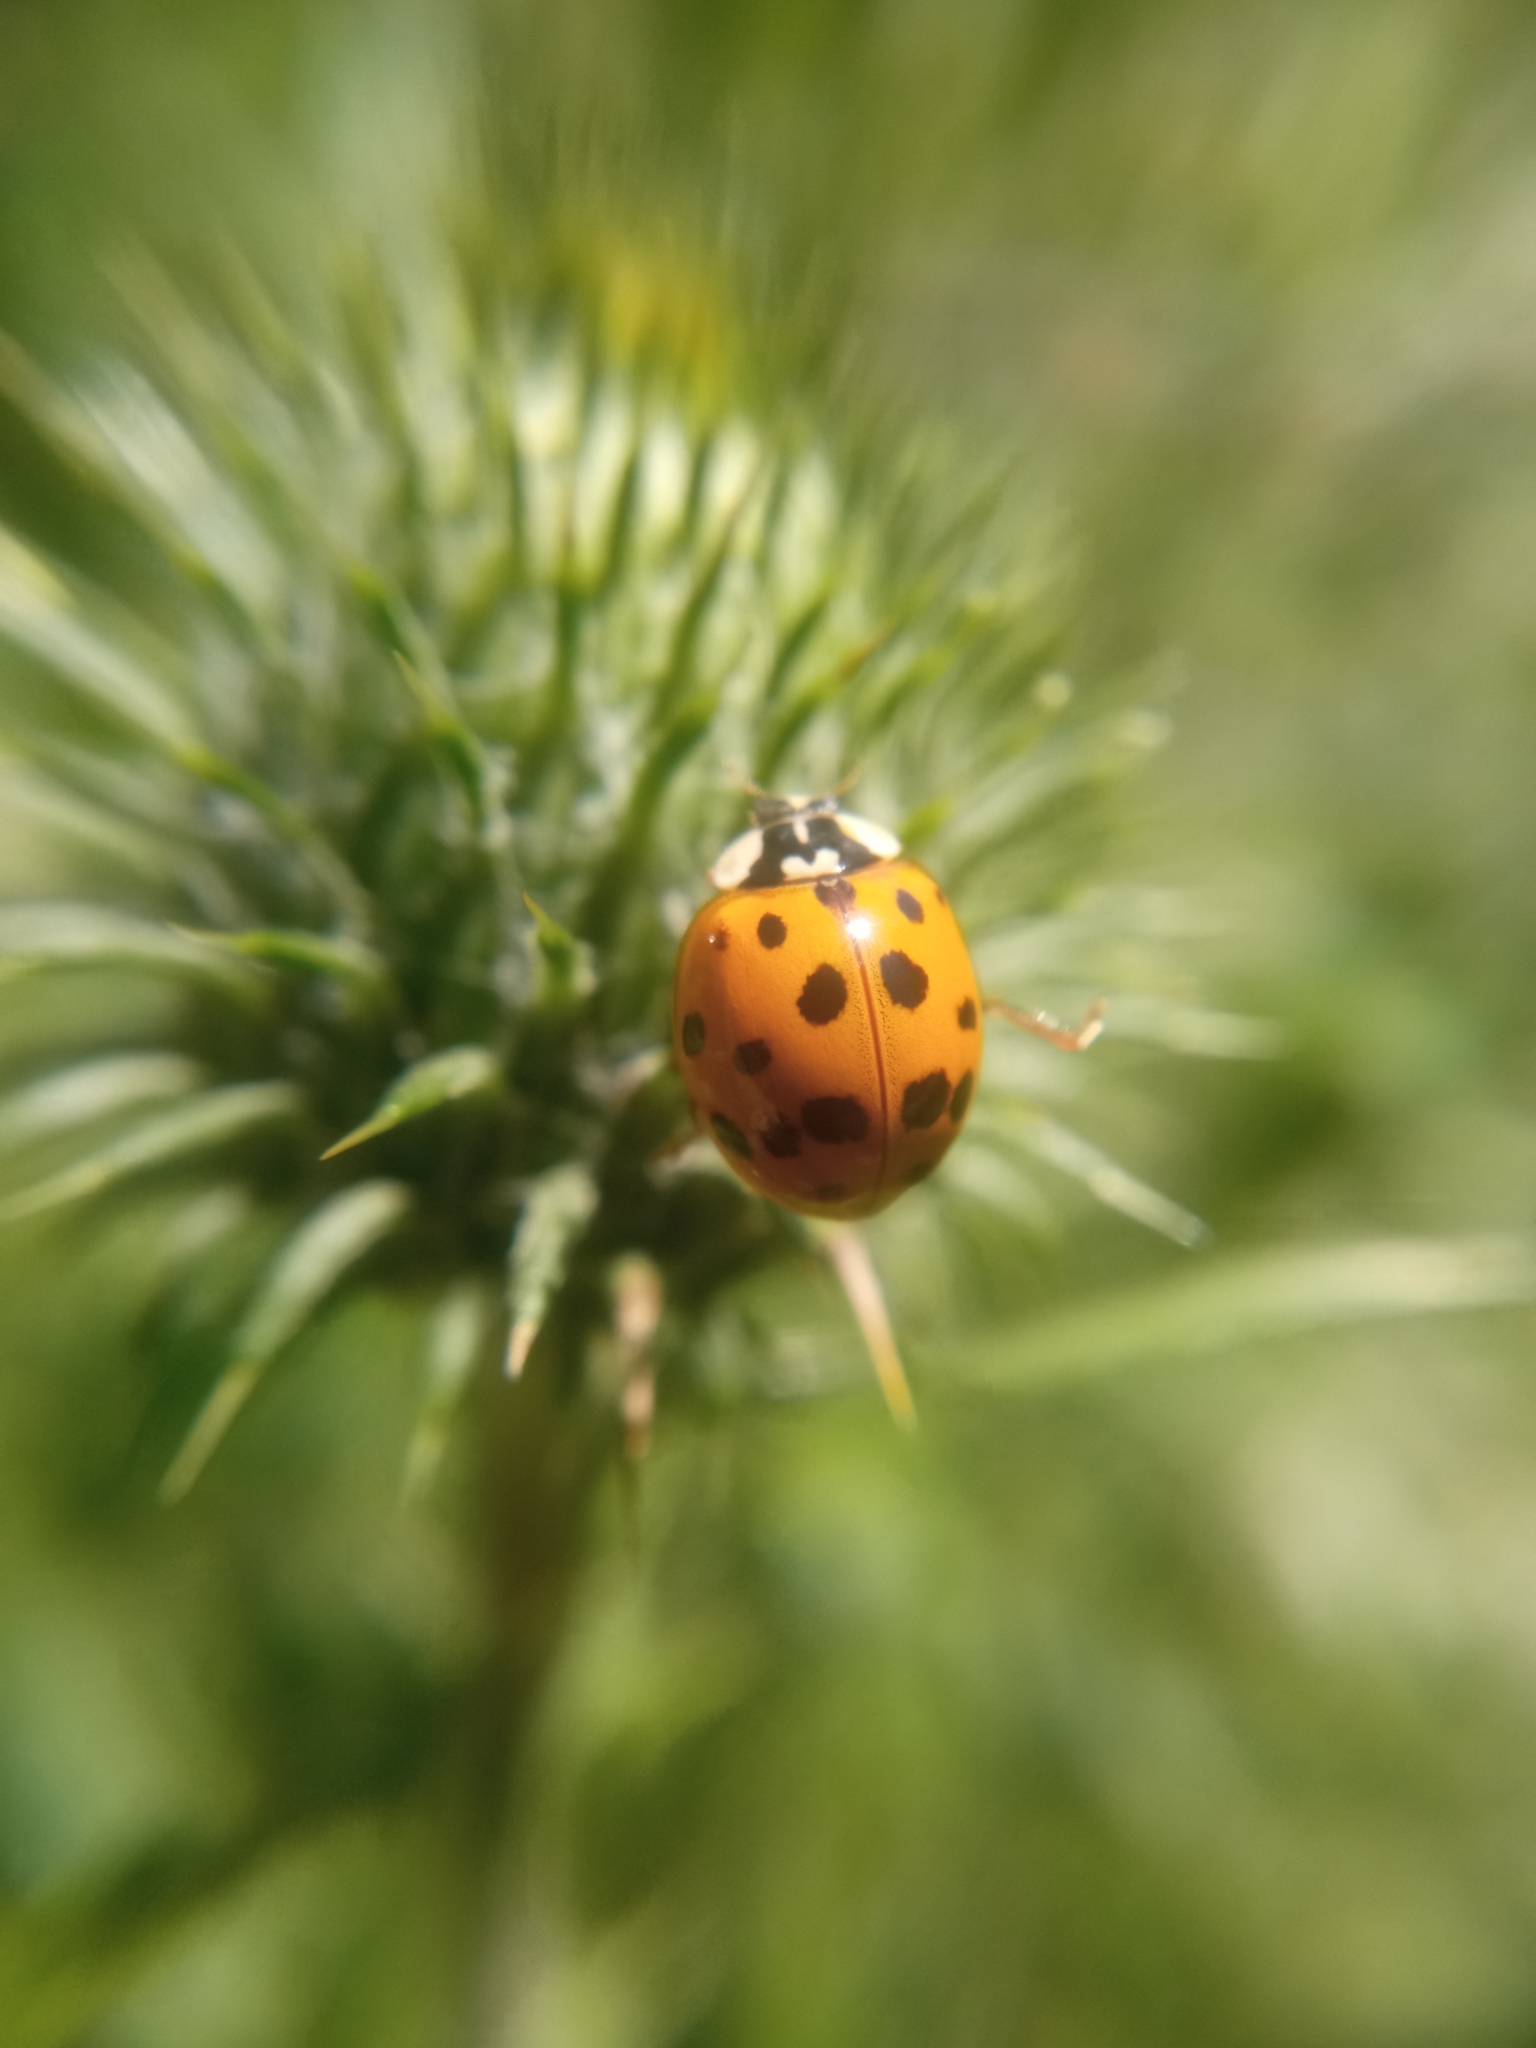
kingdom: Animalia
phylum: Arthropoda
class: Insecta
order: Coleoptera
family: Coccinellidae
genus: Harmonia
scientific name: Harmonia axyridis
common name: Harlequin ladybird
